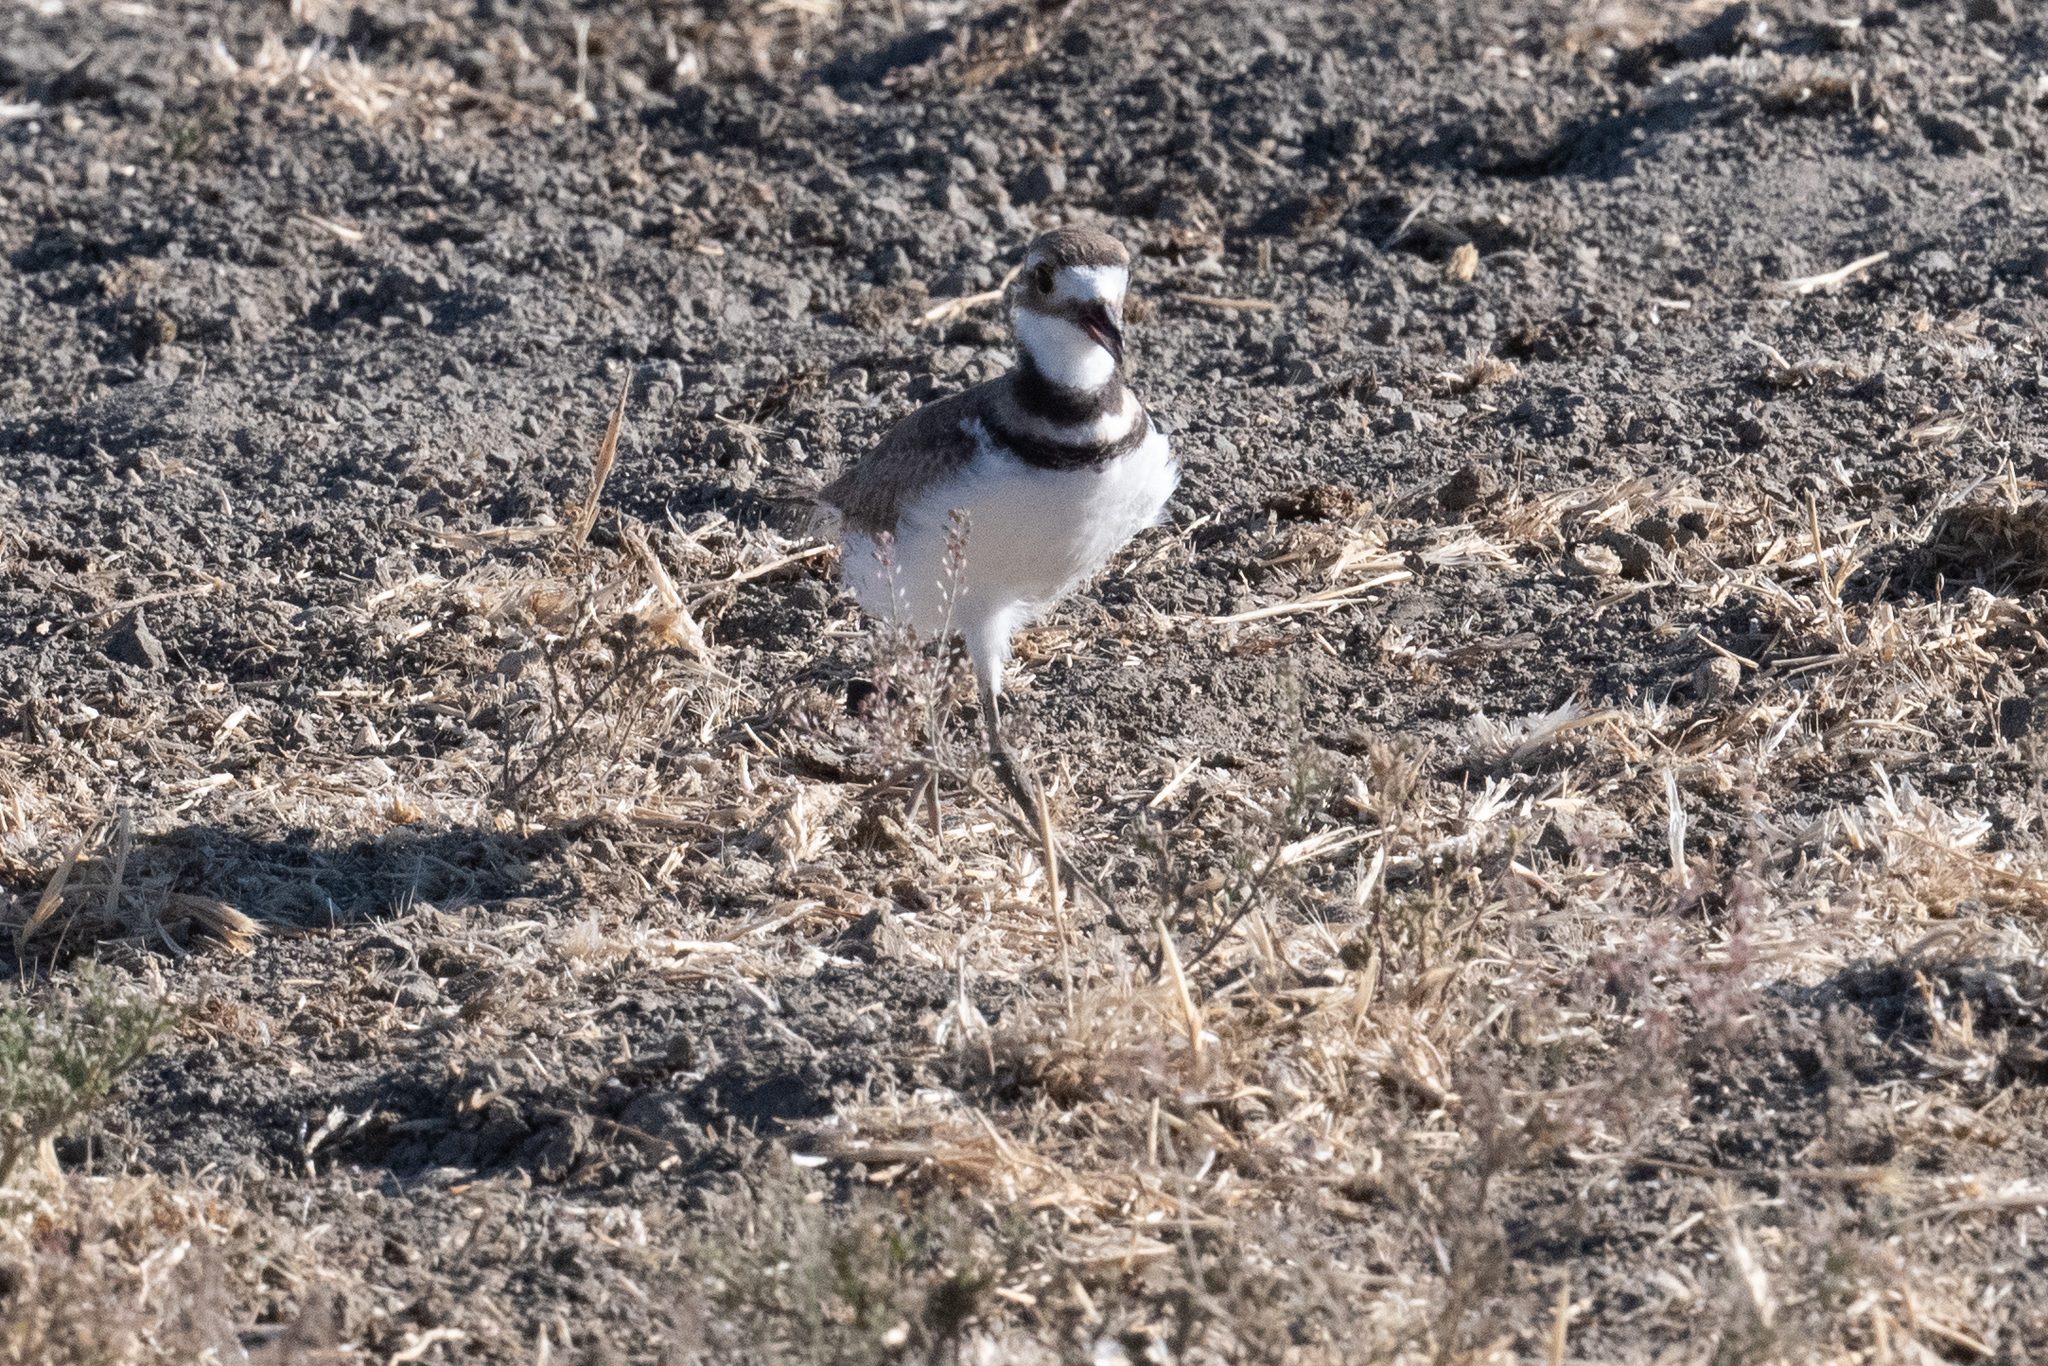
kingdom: Animalia
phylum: Chordata
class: Aves
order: Charadriiformes
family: Charadriidae
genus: Charadrius
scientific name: Charadrius vociferus
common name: Killdeer
